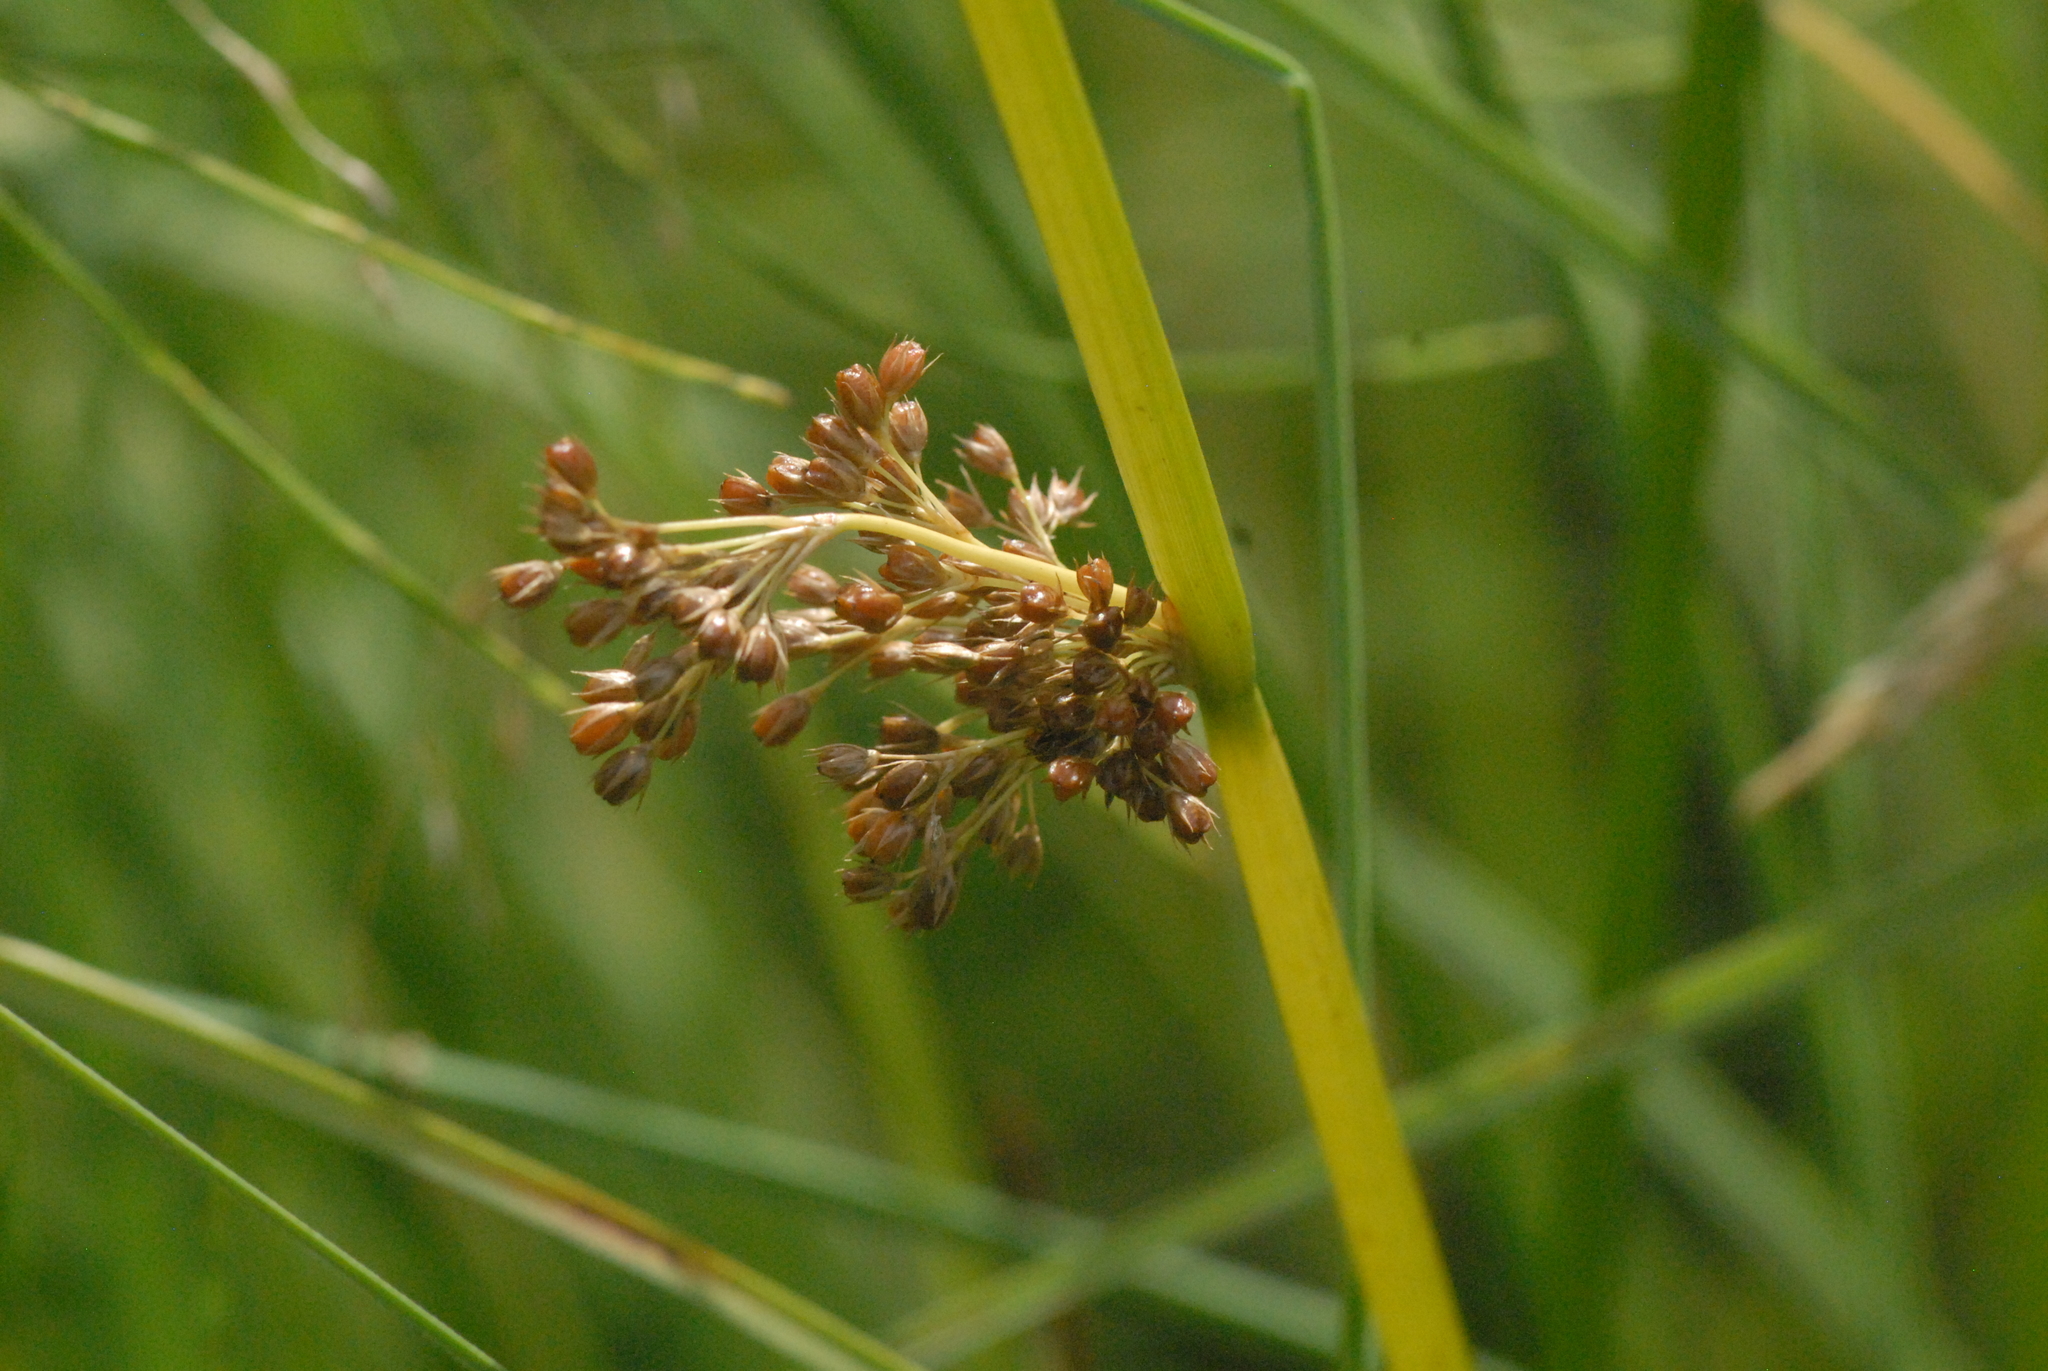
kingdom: Plantae
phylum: Tracheophyta
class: Liliopsida
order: Poales
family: Juncaceae
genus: Juncus
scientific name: Juncus effusus
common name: Soft rush
